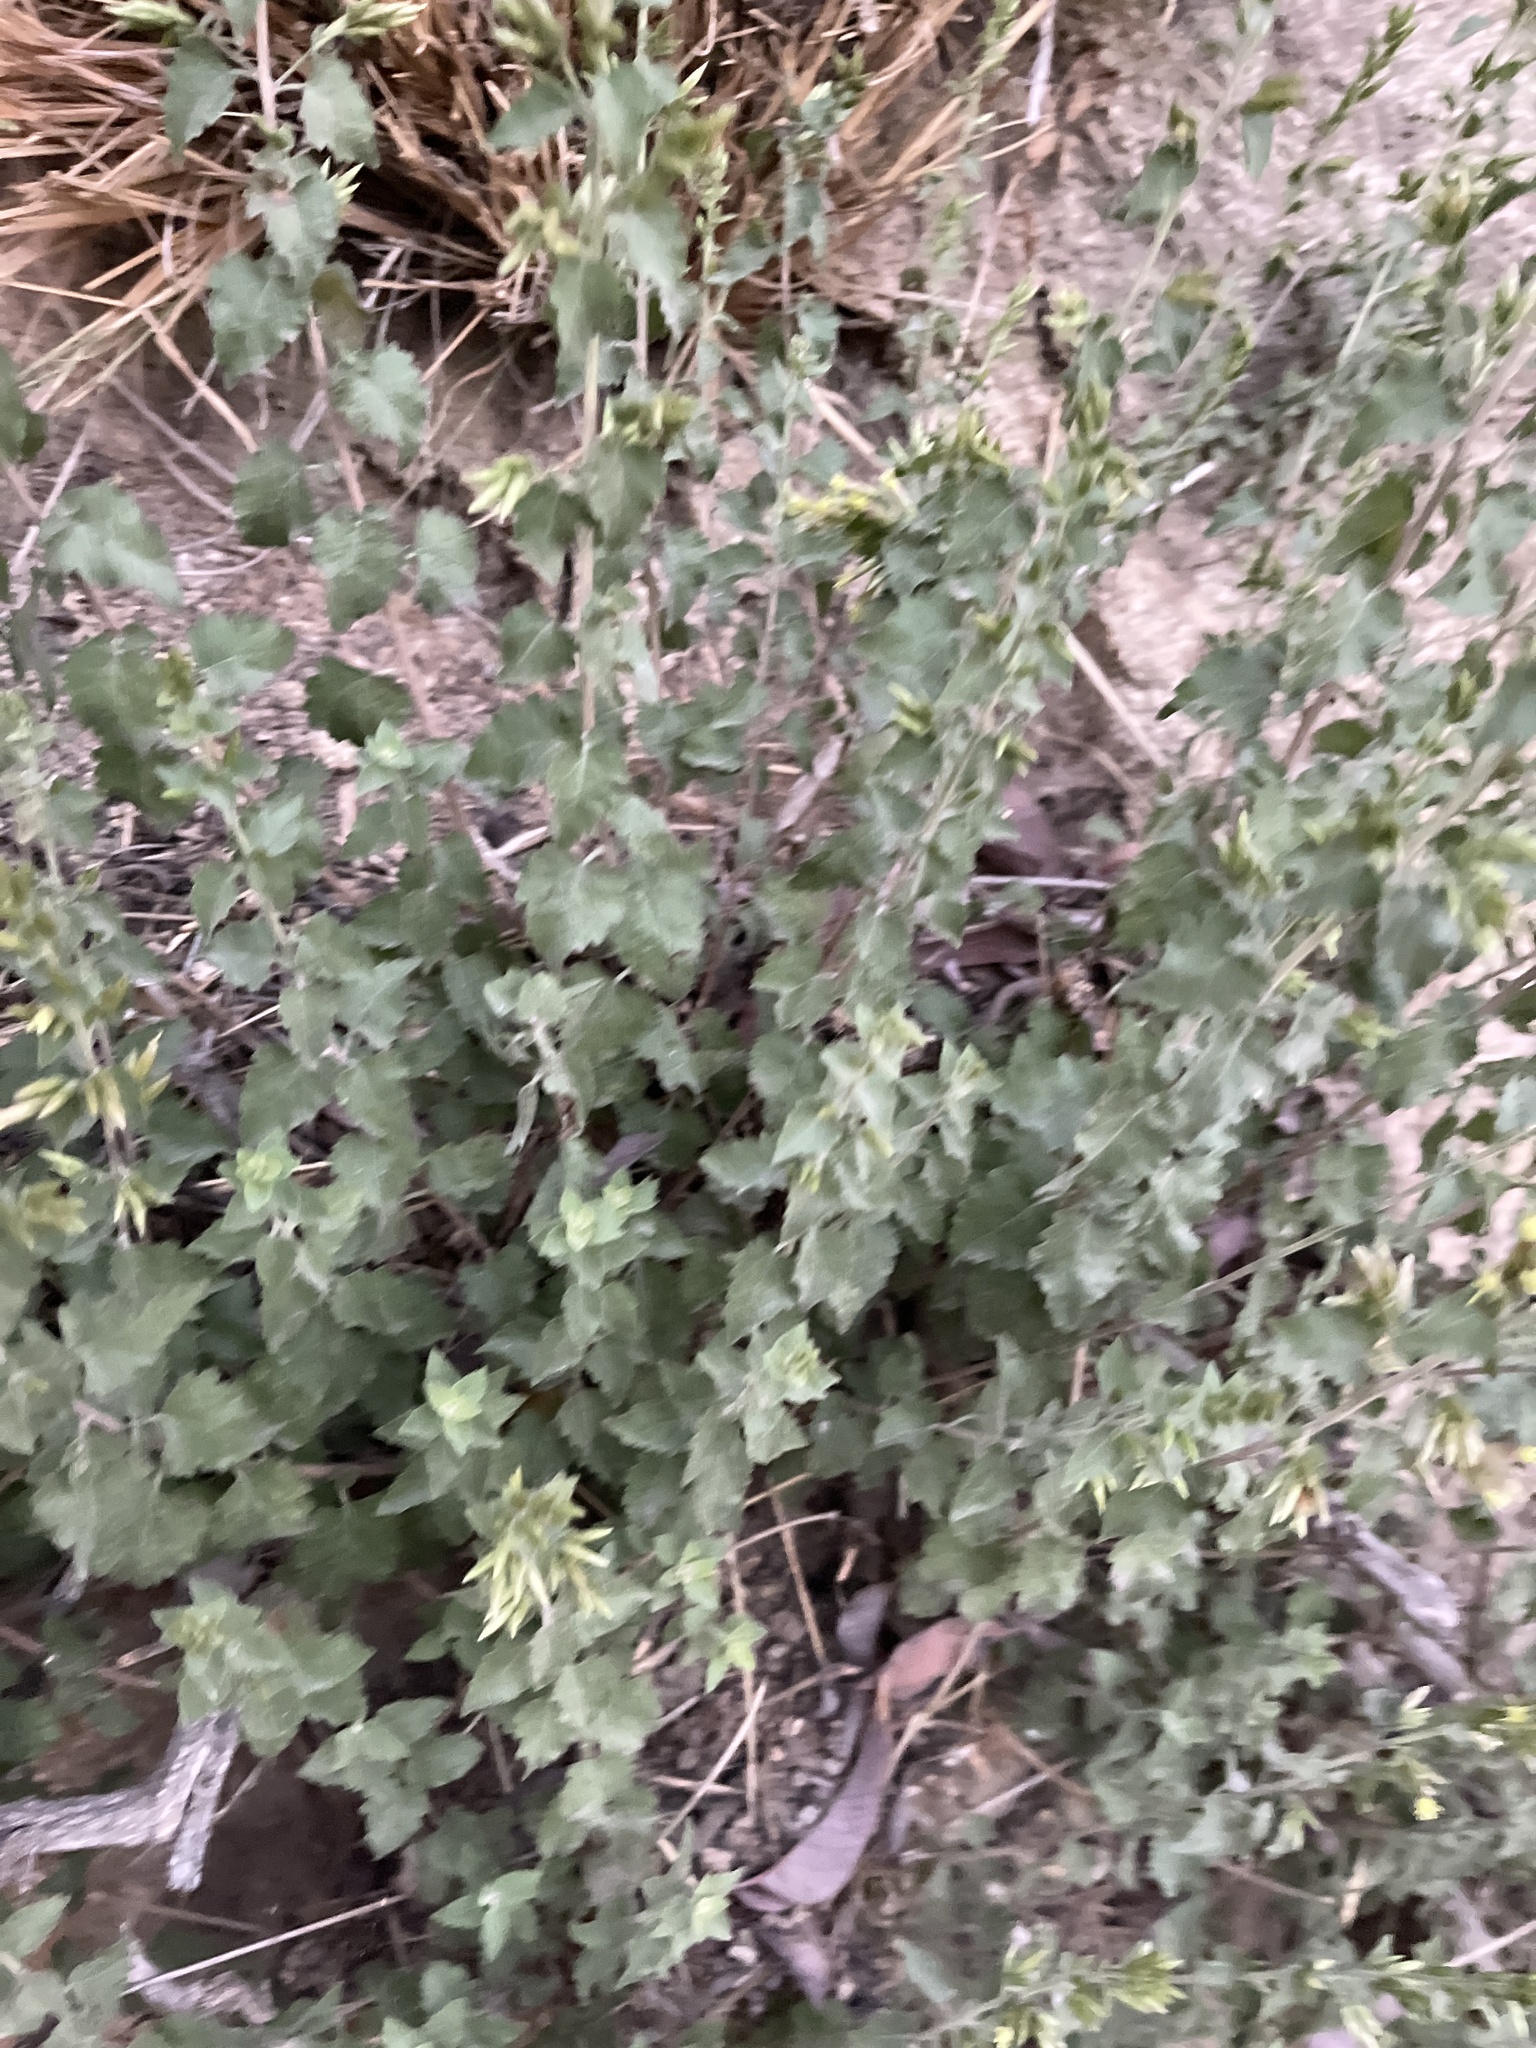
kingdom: Plantae
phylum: Tracheophyta
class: Magnoliopsida
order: Asterales
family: Asteraceae
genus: Brickellia
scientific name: Brickellia californica
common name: California brickellbush
